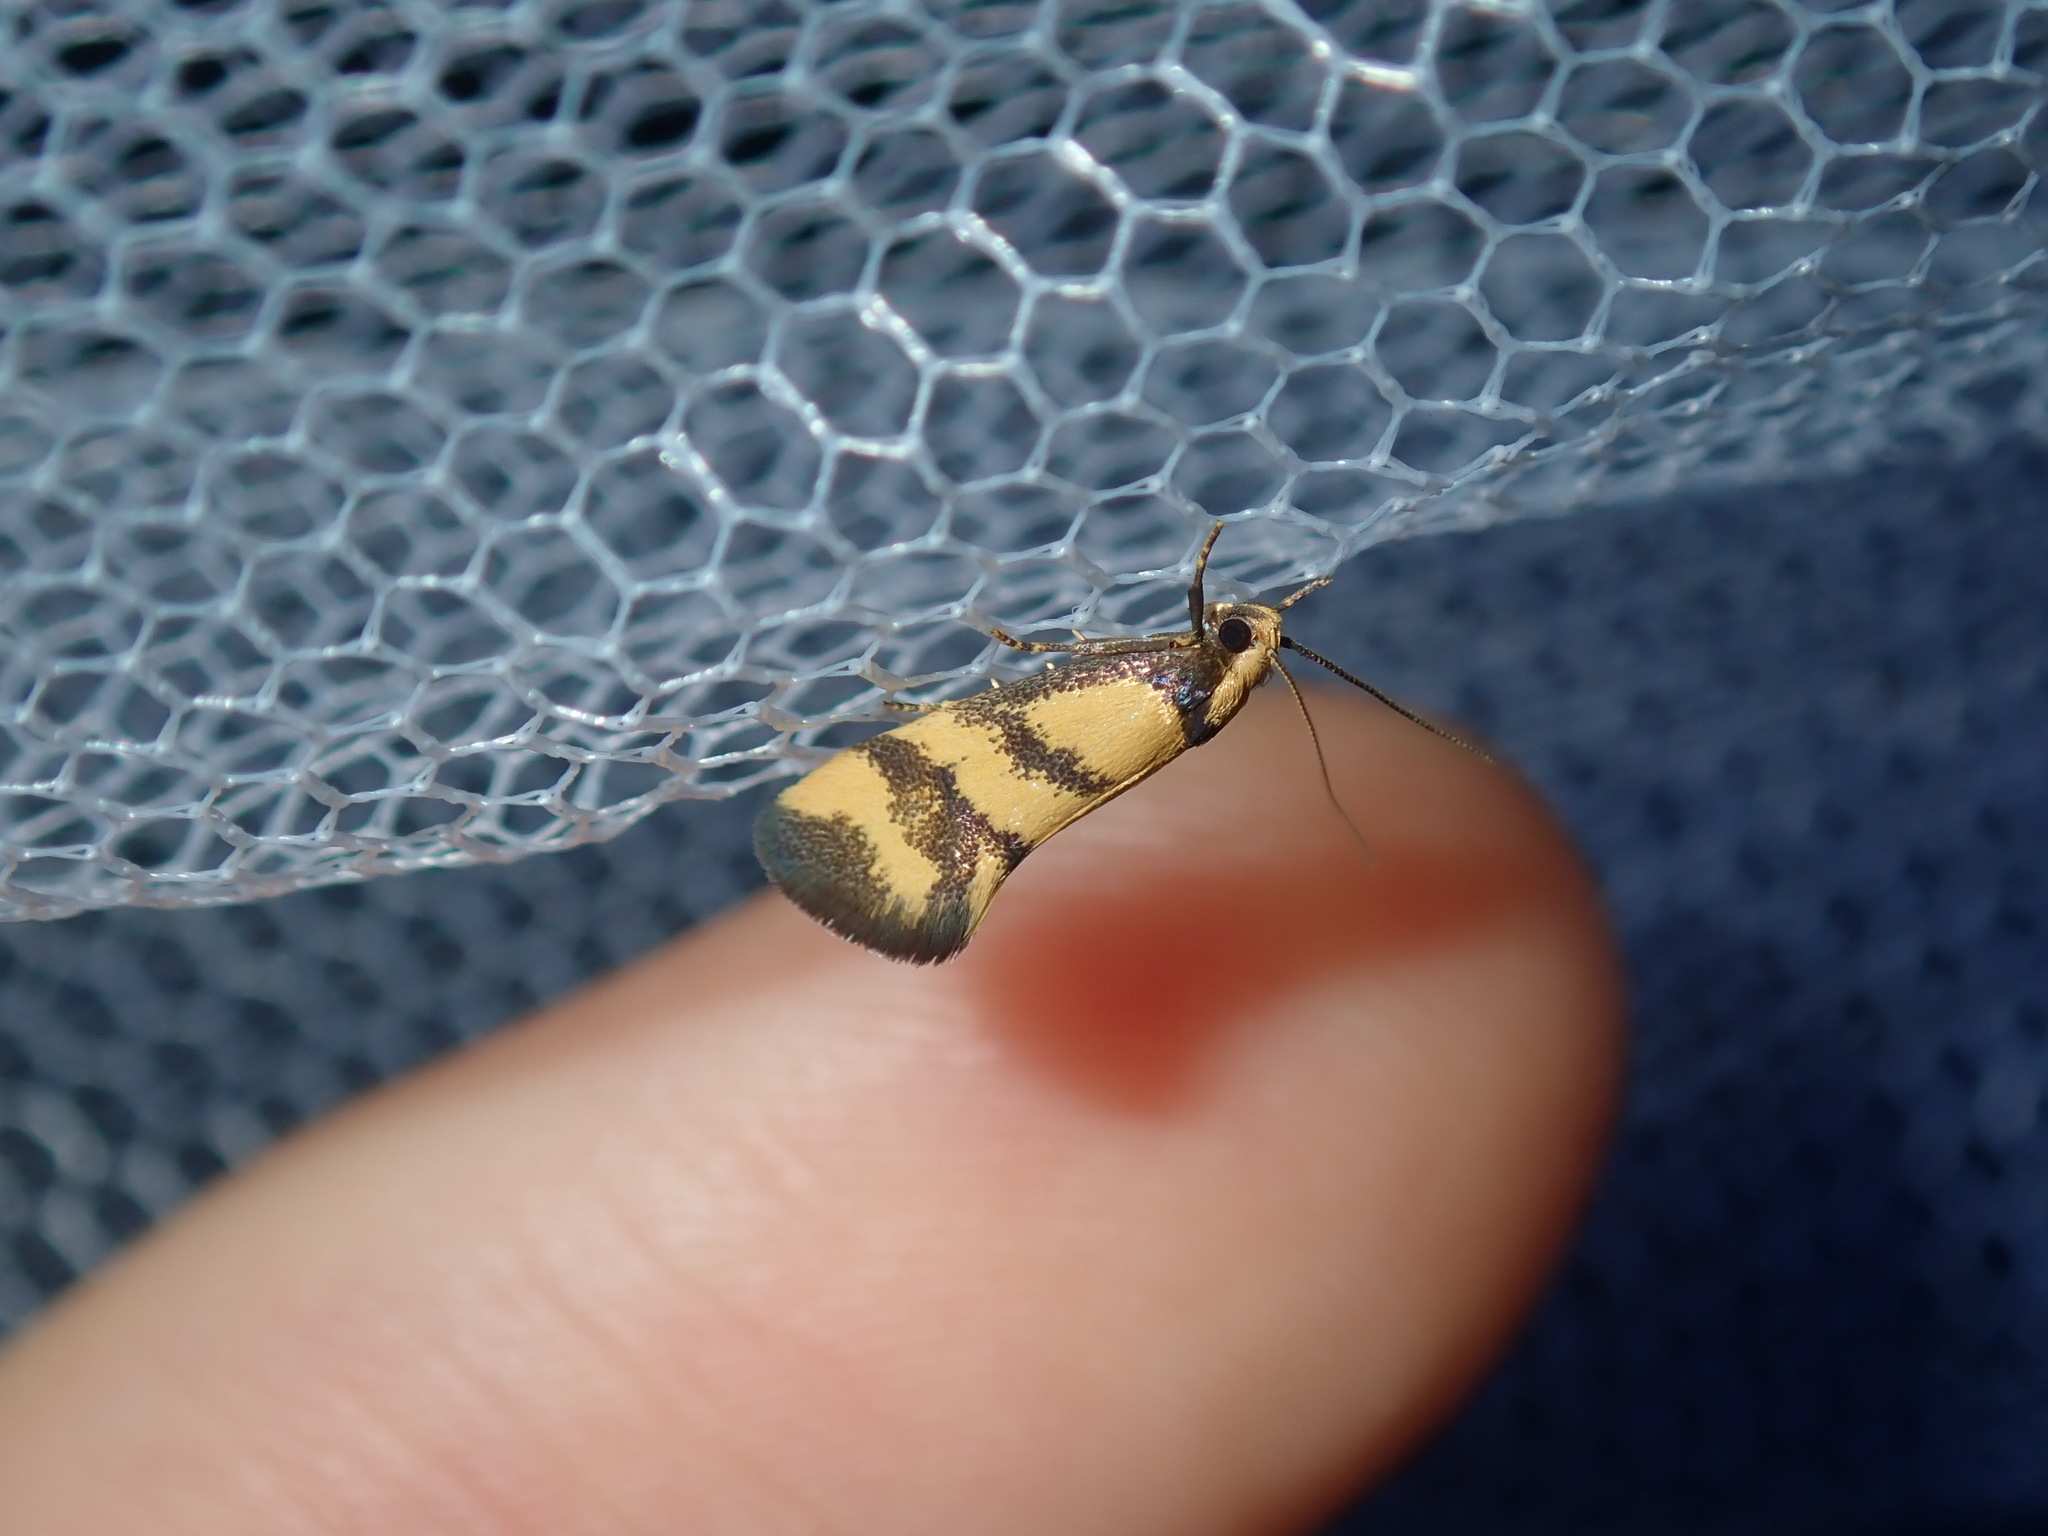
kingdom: Animalia
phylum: Arthropoda
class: Insecta
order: Lepidoptera
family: Oecophoridae
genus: Olbonoma
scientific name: Olbonoma triptycha
